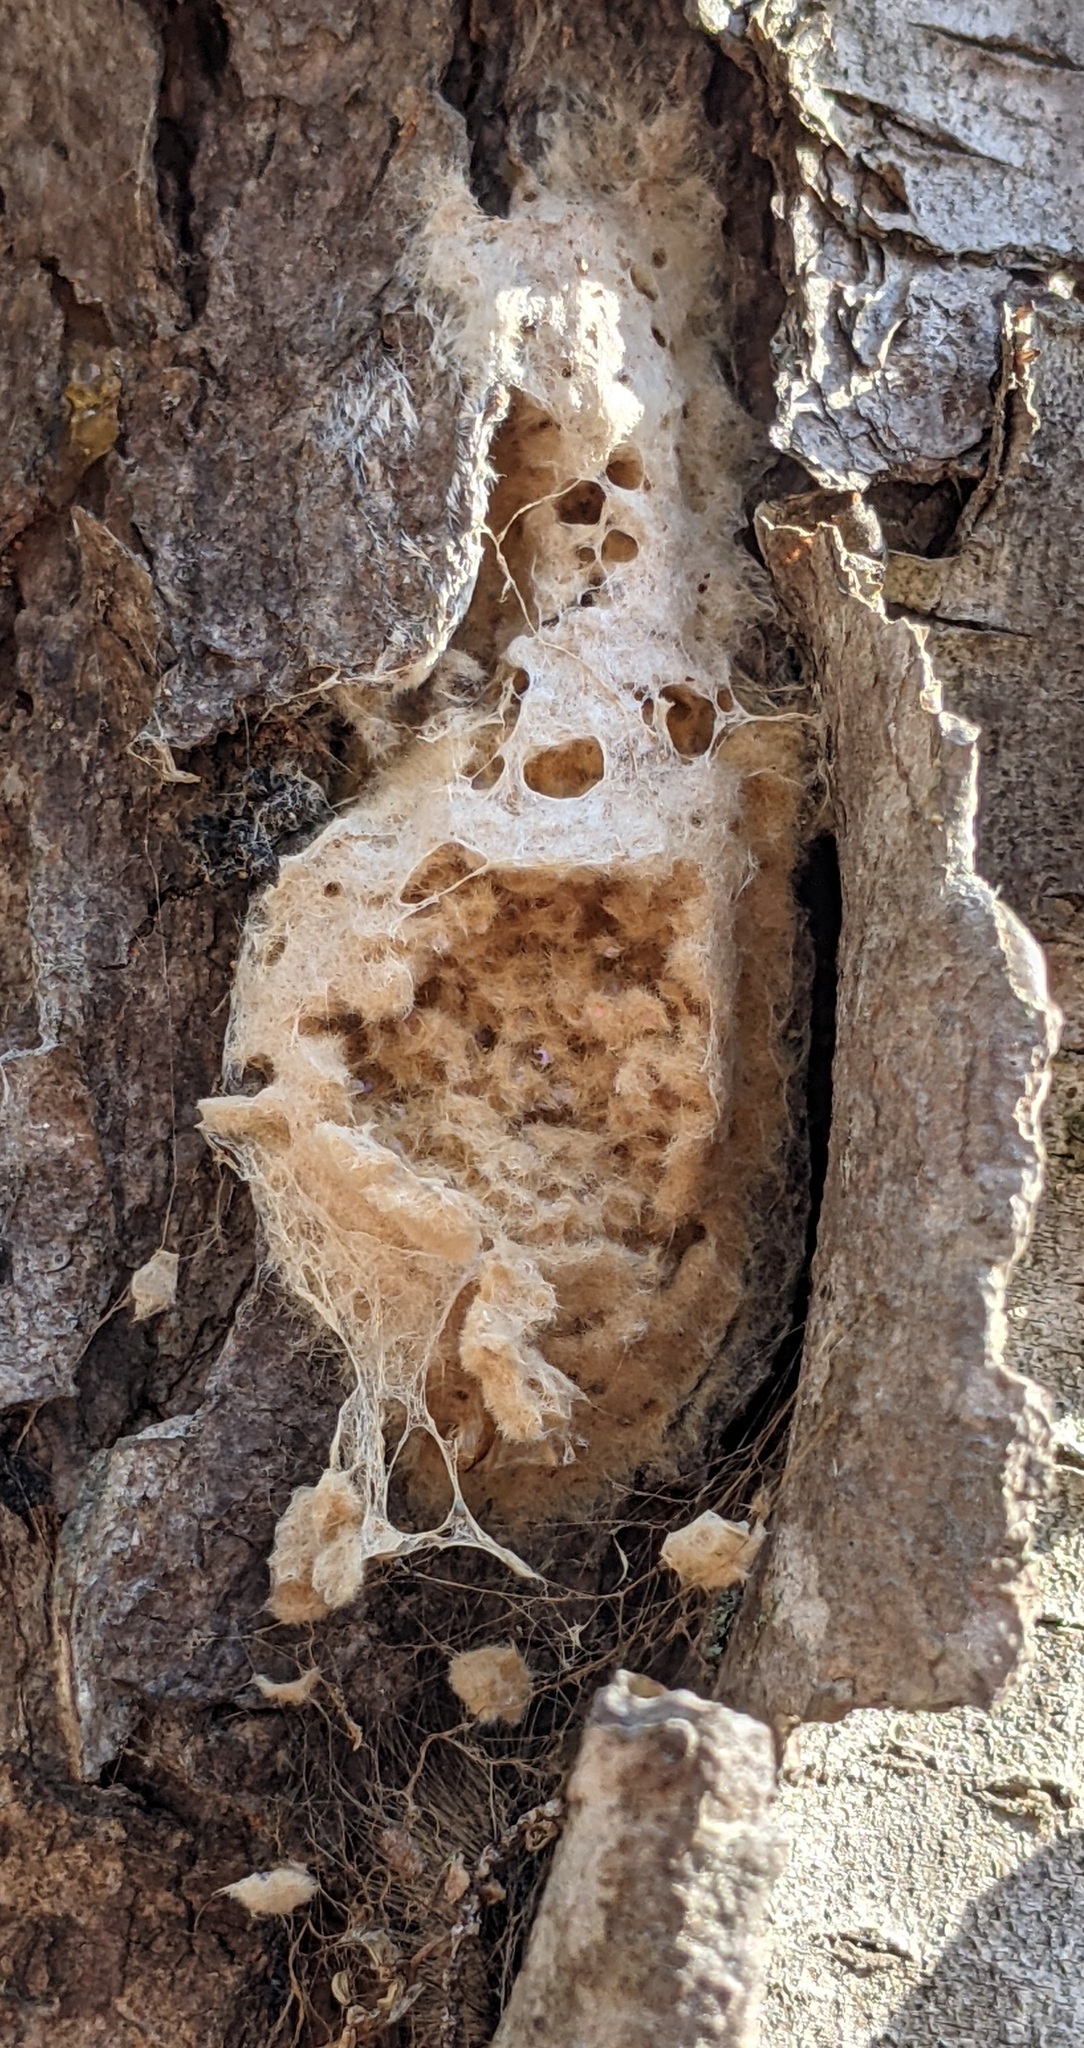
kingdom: Animalia
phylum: Arthropoda
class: Insecta
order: Lepidoptera
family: Erebidae
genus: Lymantria
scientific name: Lymantria dispar
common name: Gypsy moth
